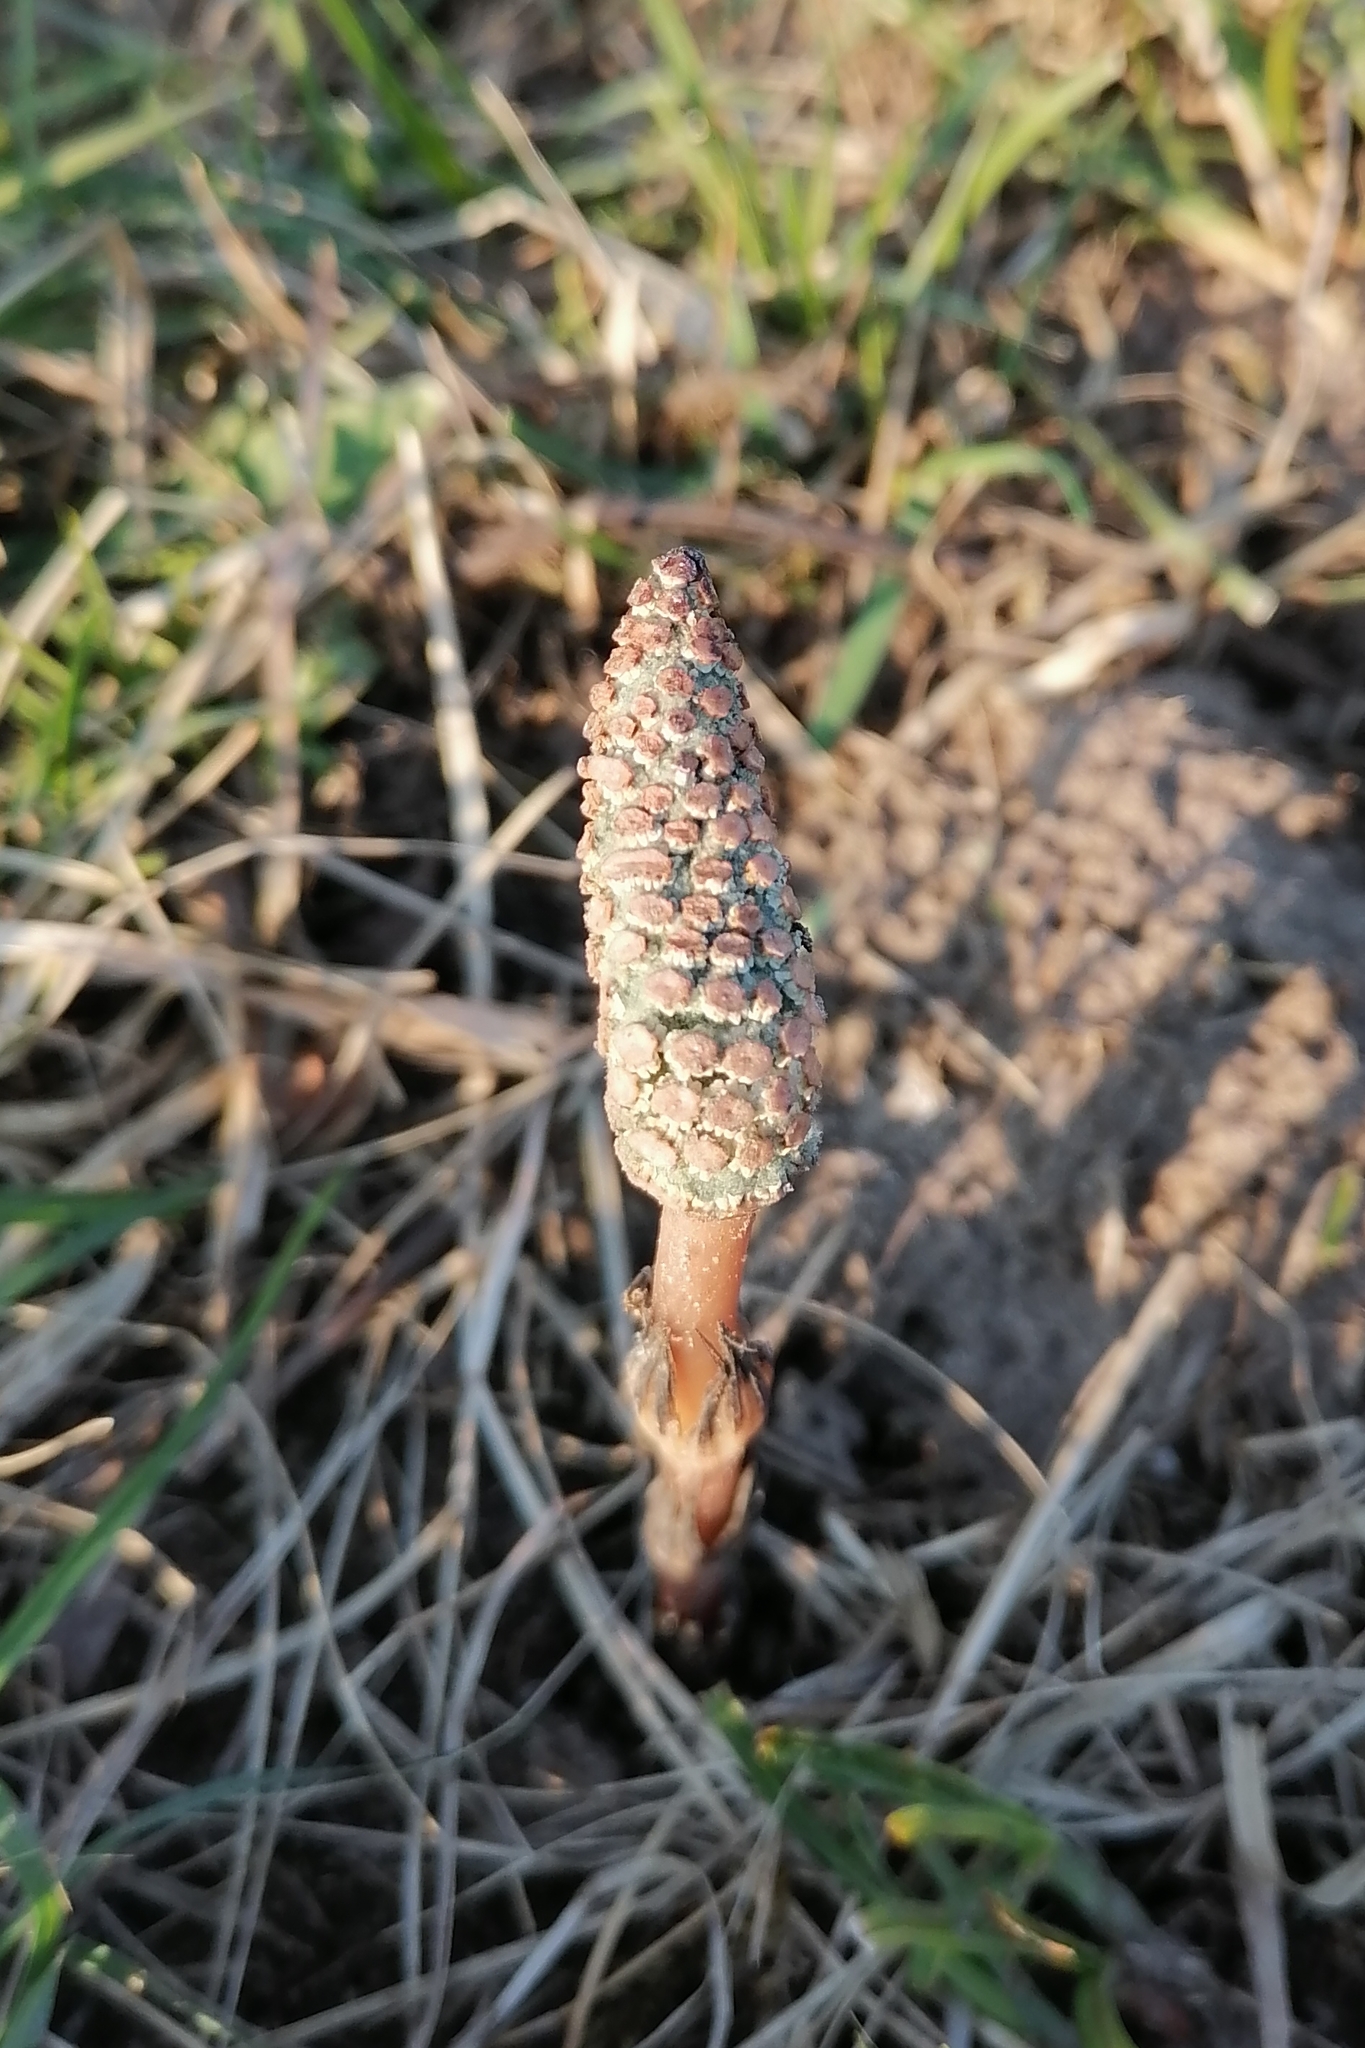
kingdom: Plantae
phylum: Tracheophyta
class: Polypodiopsida
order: Equisetales
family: Equisetaceae
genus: Equisetum
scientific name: Equisetum arvense
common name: Field horsetail
